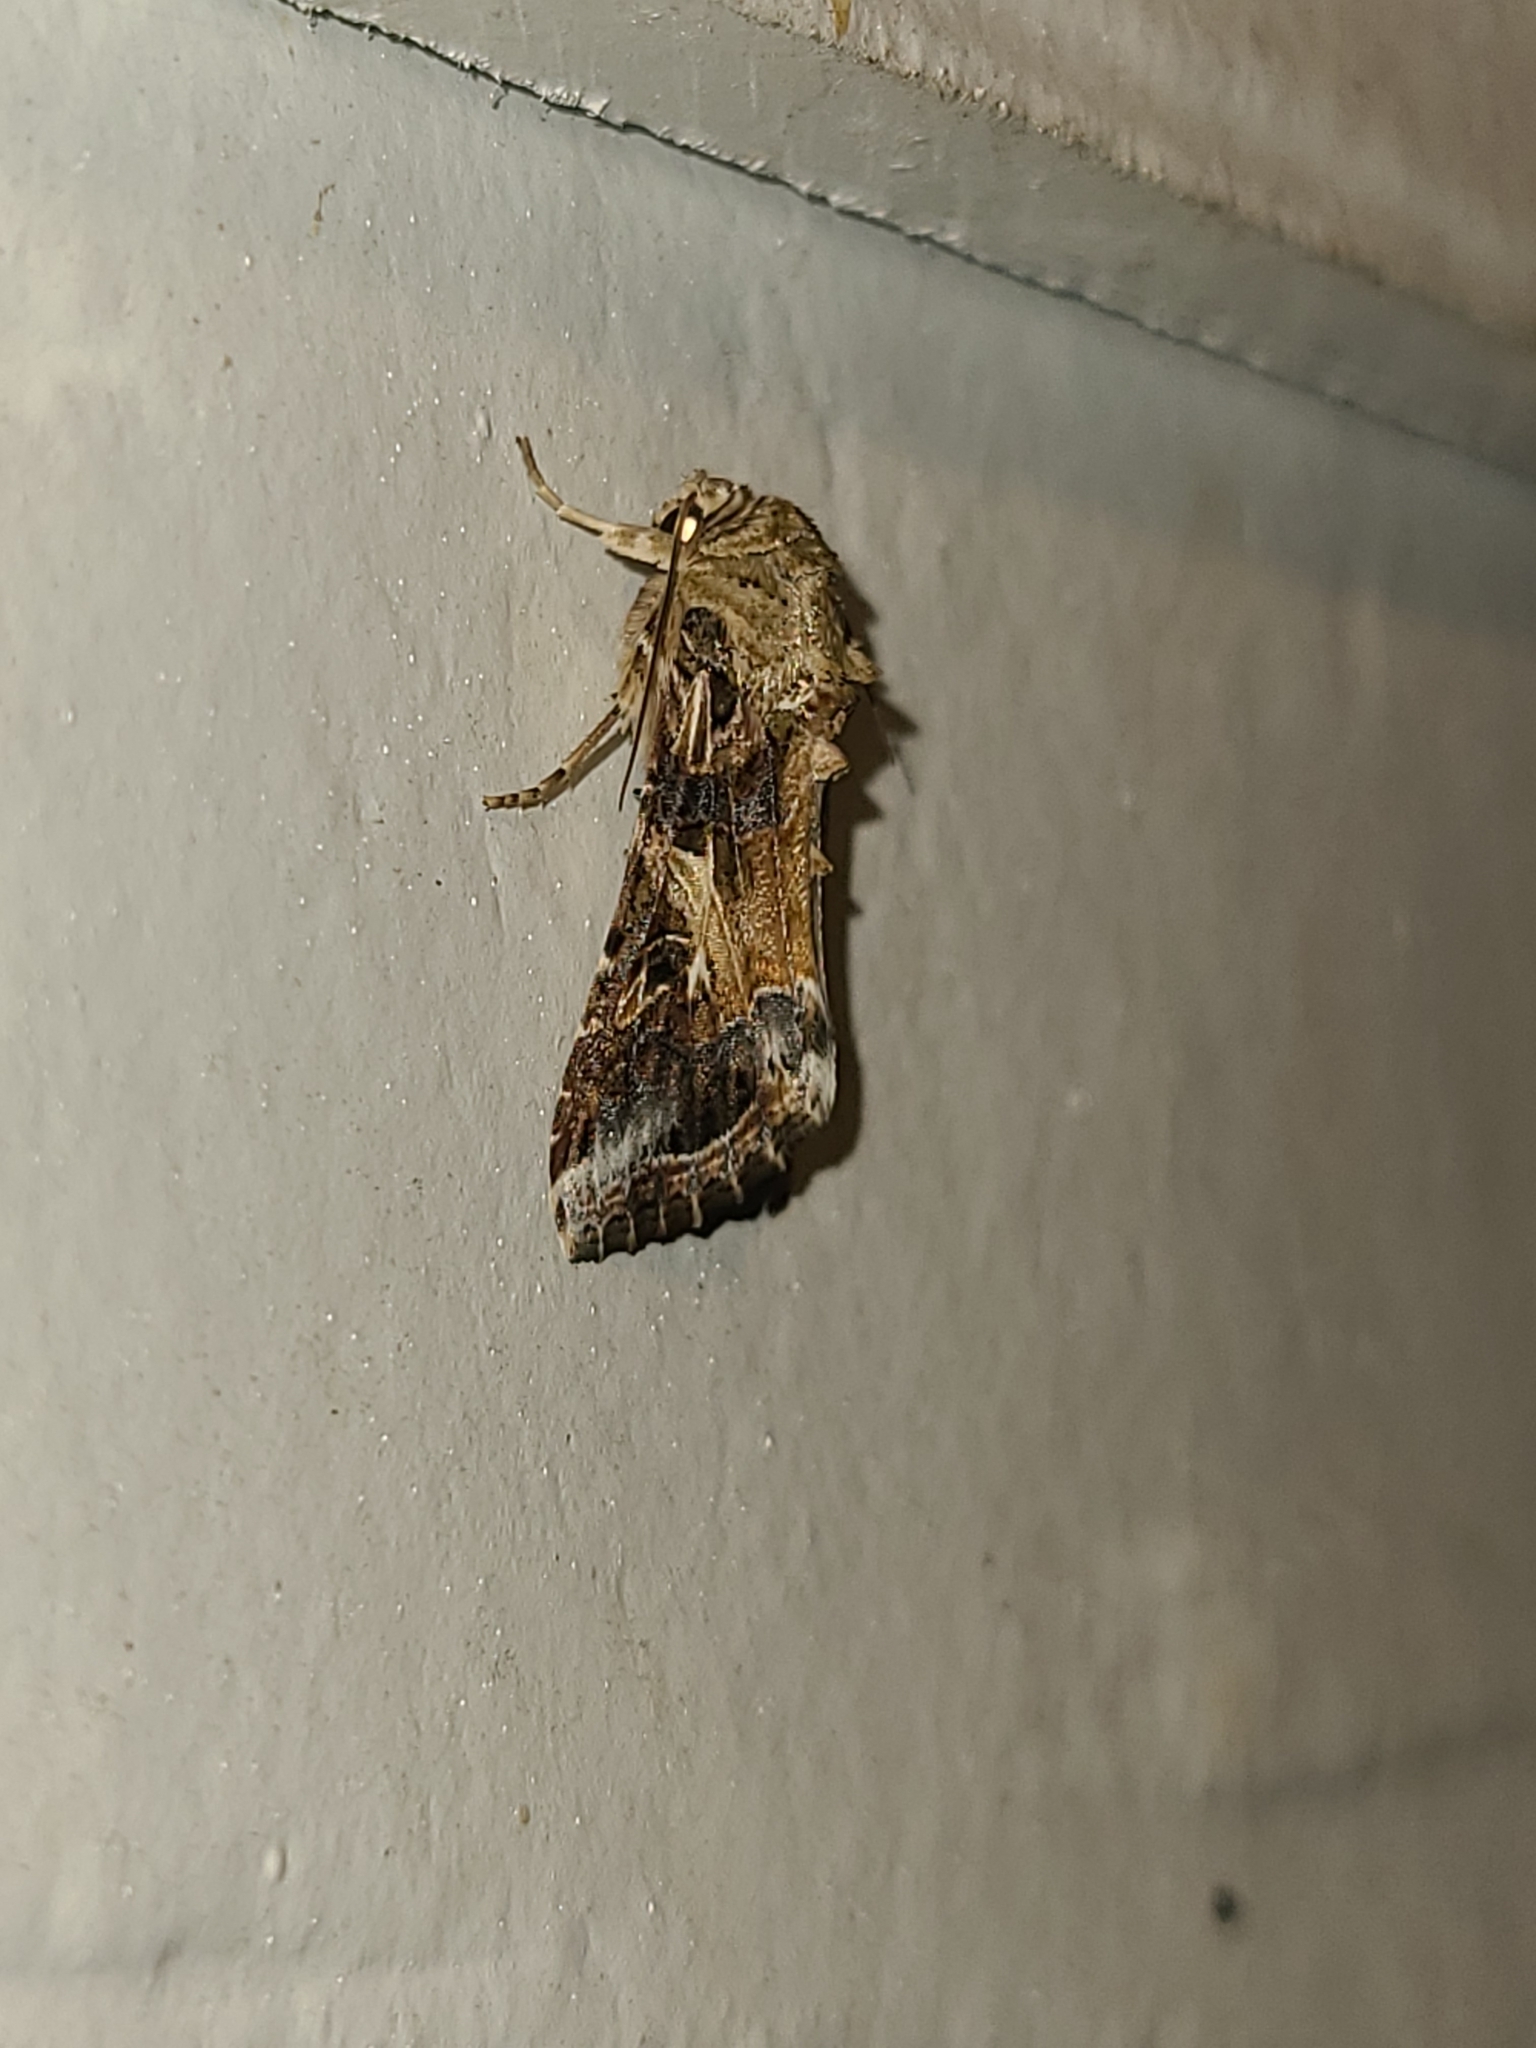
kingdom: Animalia
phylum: Arthropoda
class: Insecta
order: Lepidoptera
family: Noctuidae
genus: Spodoptera
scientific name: Spodoptera ornithogalli
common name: Yellow-striped armyworm
